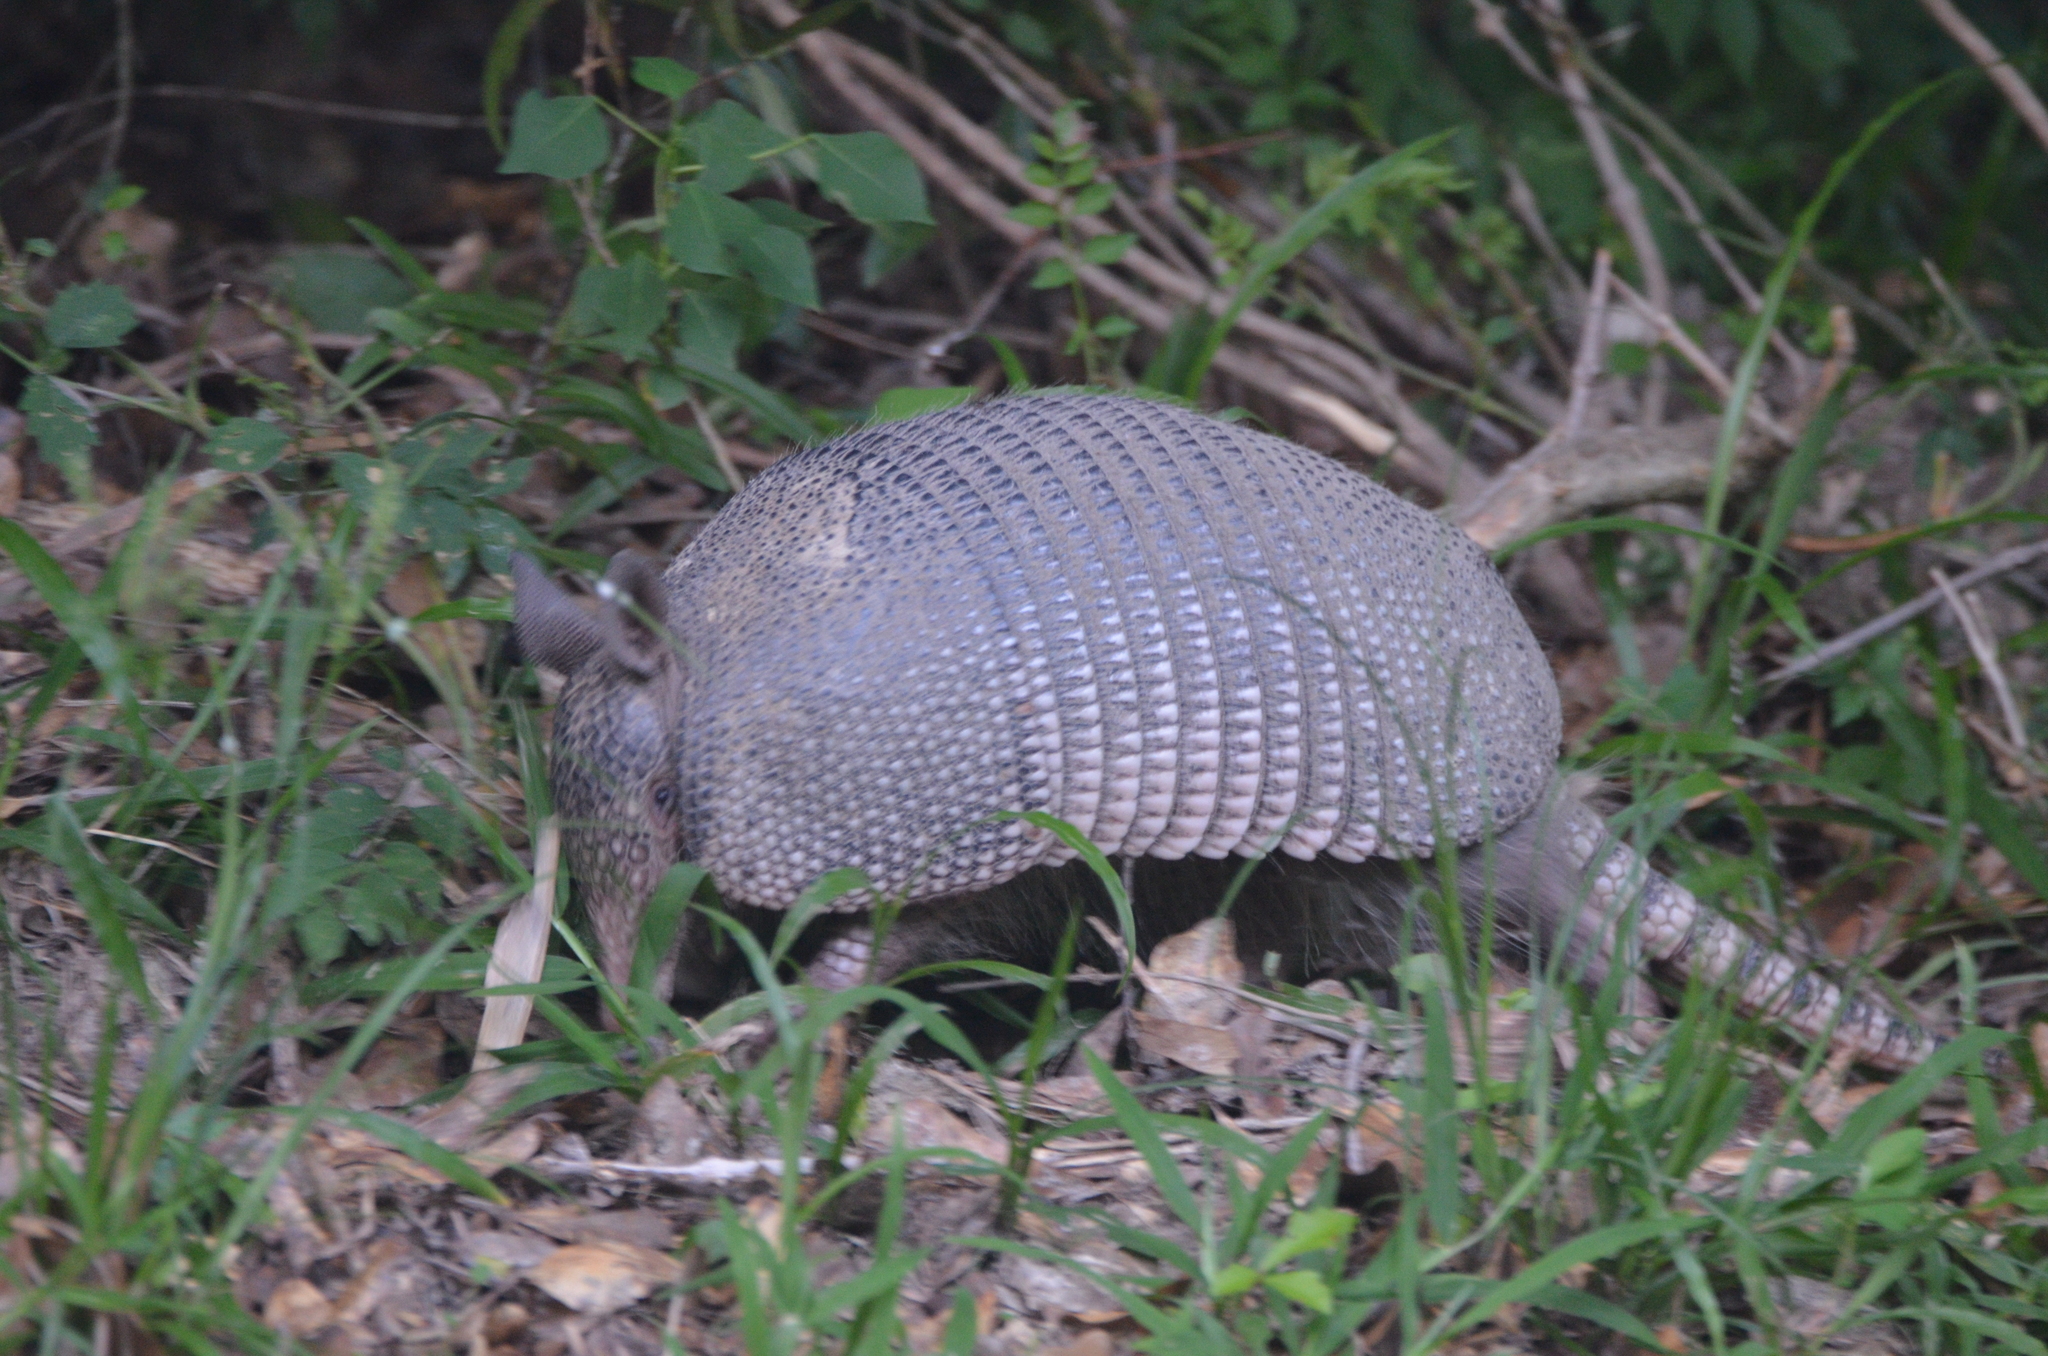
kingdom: Animalia
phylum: Chordata
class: Mammalia
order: Cingulata
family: Dasypodidae
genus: Dasypus
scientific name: Dasypus novemcinctus
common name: Nine-banded armadillo
